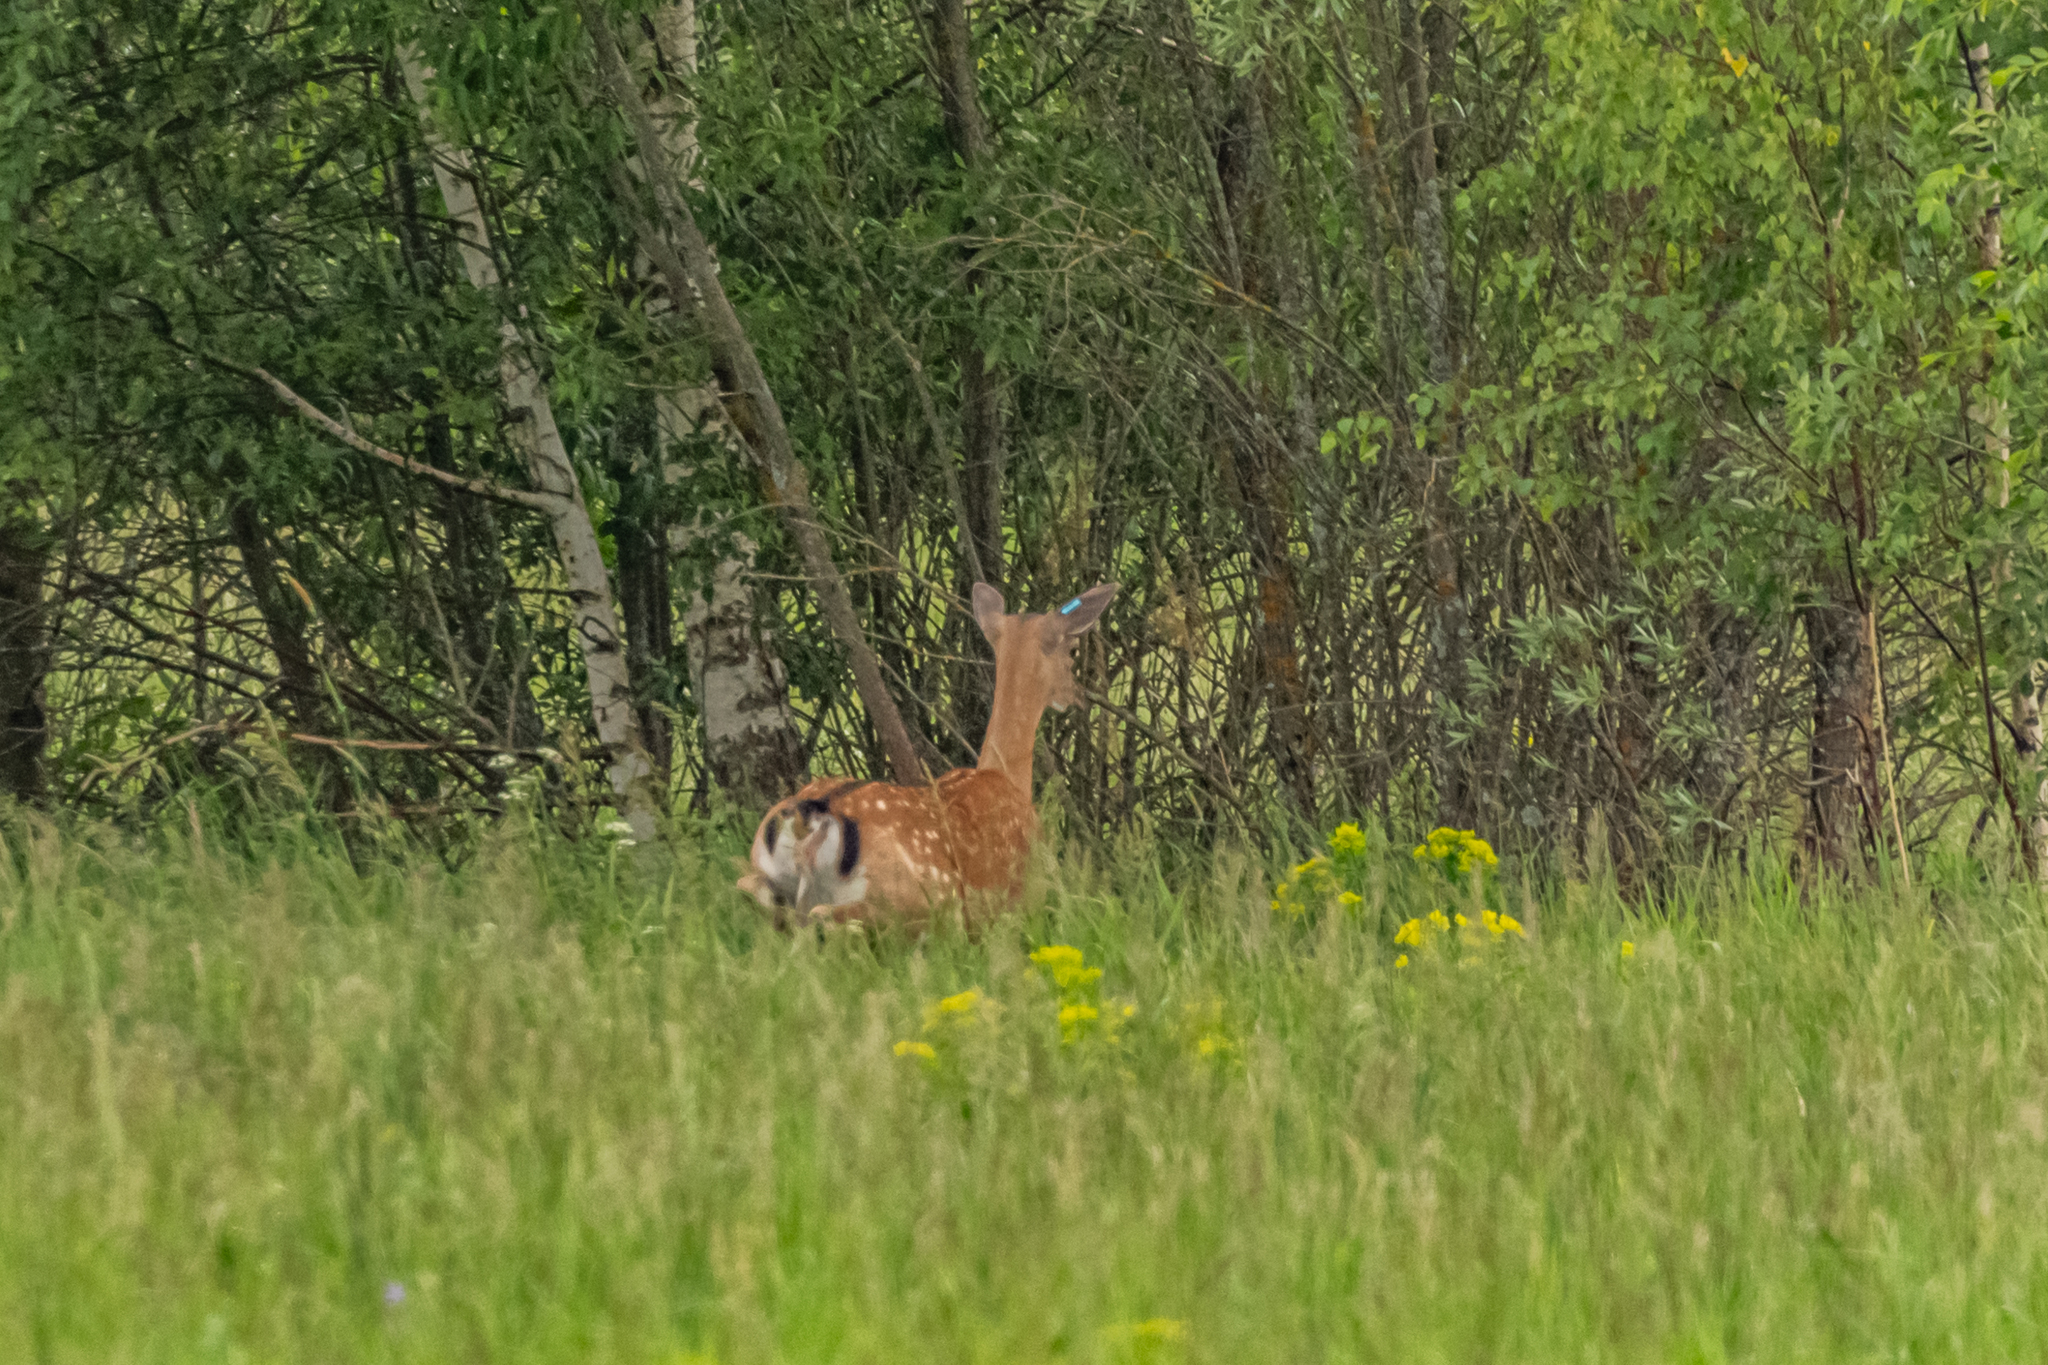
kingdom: Animalia
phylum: Chordata
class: Mammalia
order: Artiodactyla
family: Cervidae
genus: Cervus
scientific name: Cervus nippon
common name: Sika deer
